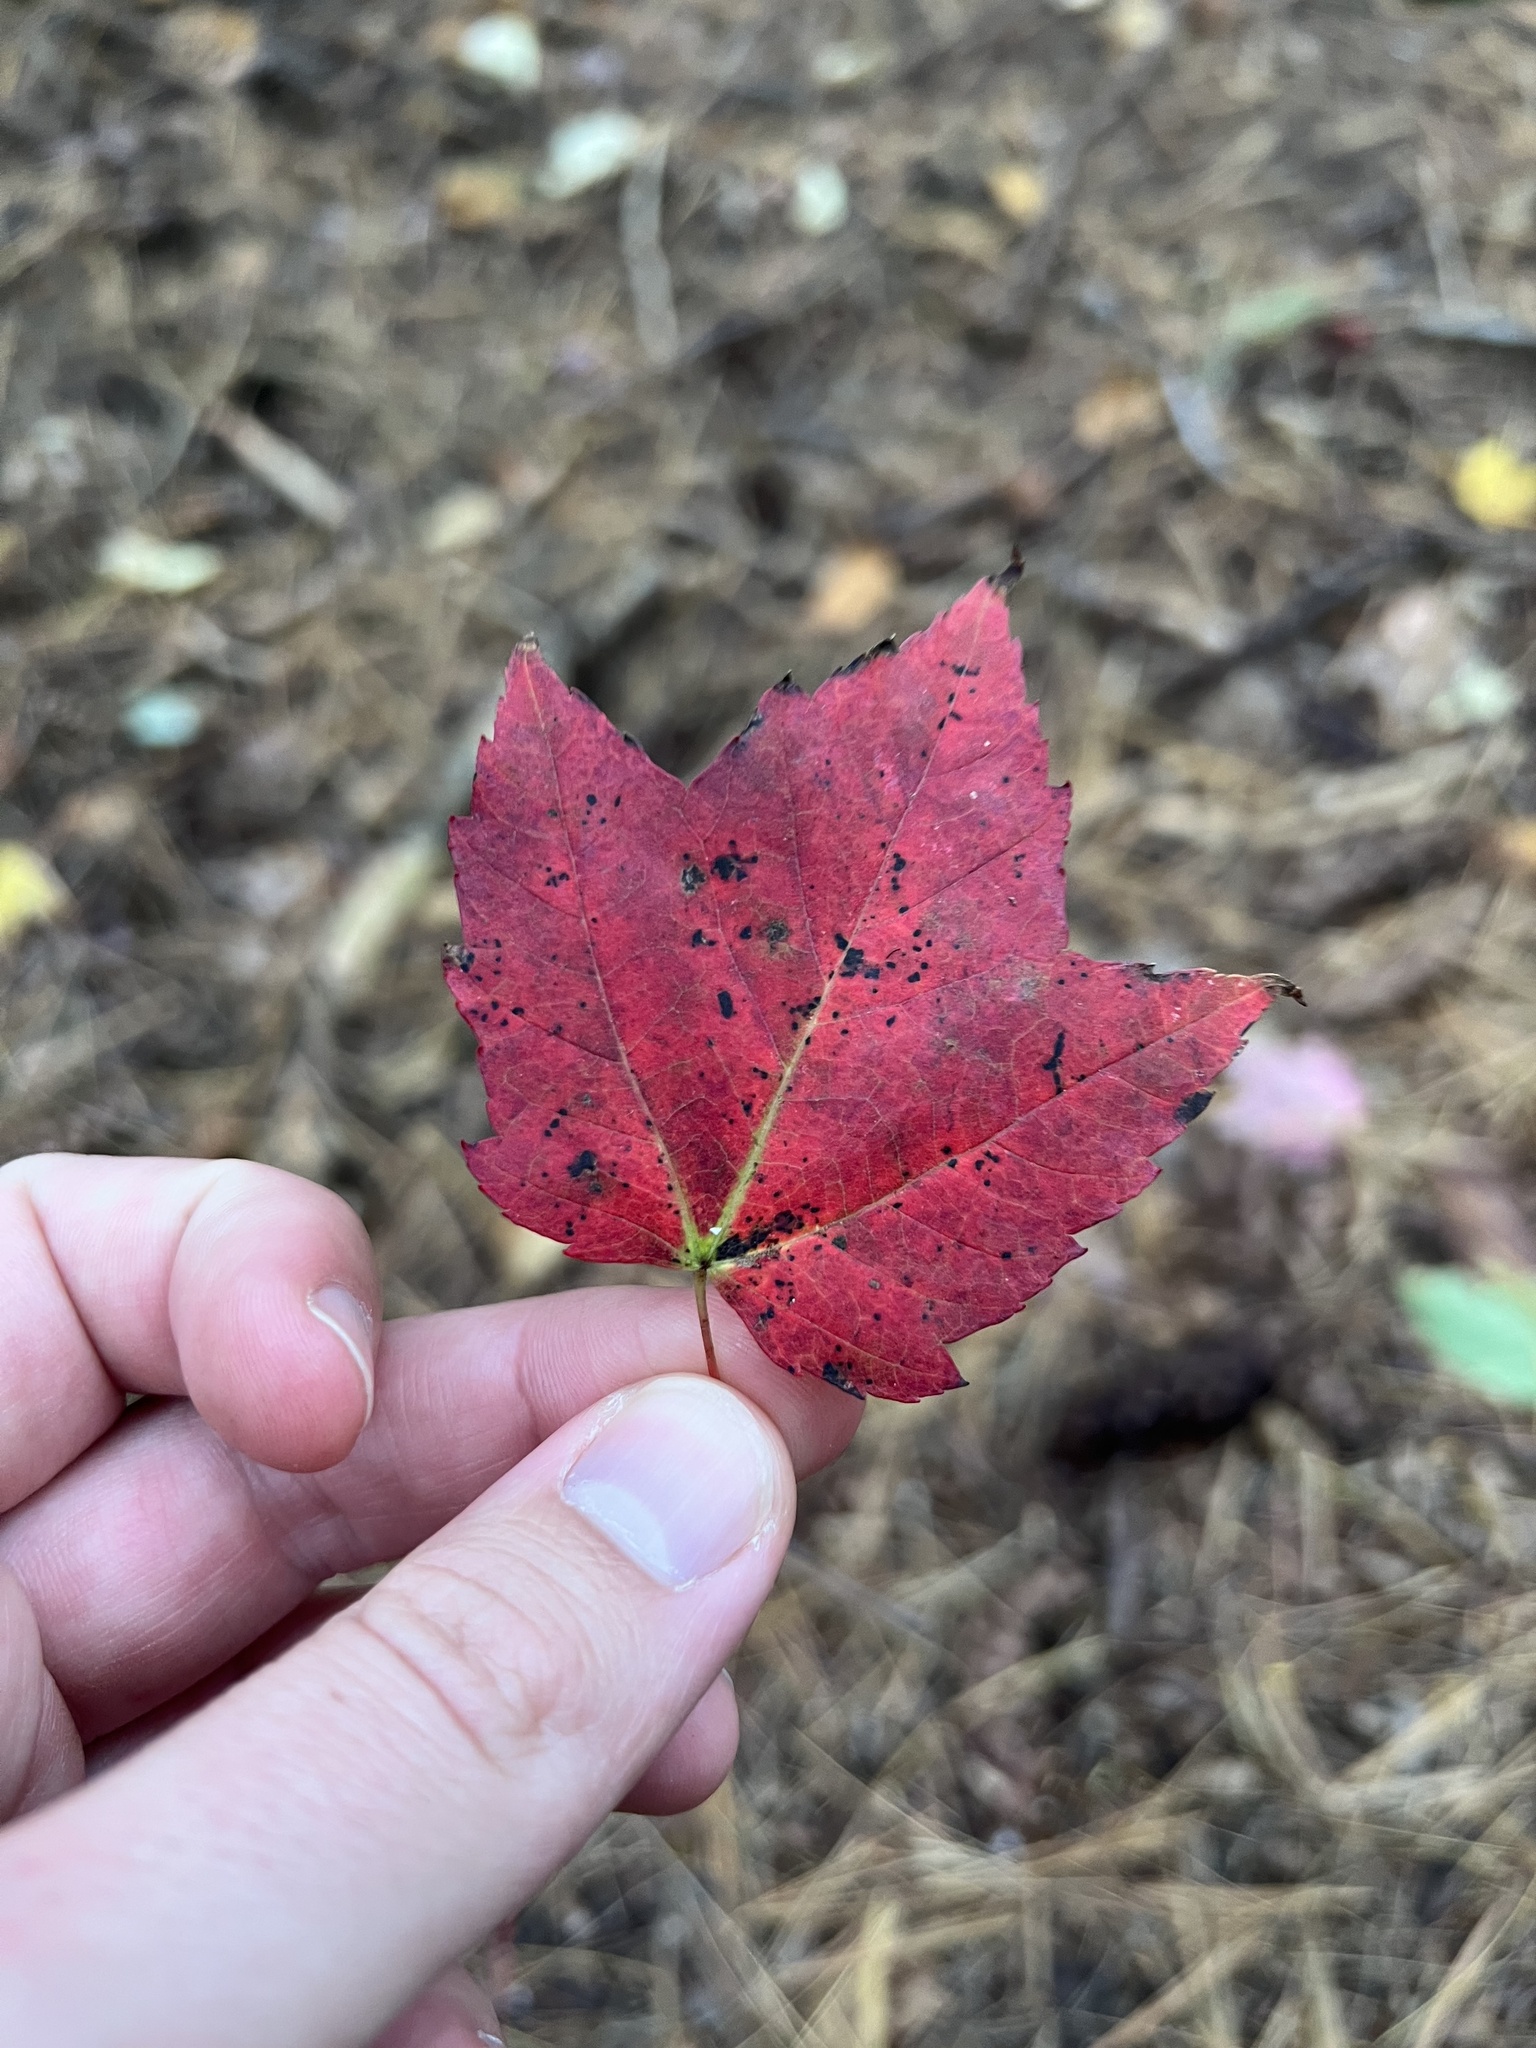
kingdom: Plantae
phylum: Tracheophyta
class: Magnoliopsida
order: Sapindales
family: Sapindaceae
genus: Acer
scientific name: Acer rubrum
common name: Red maple
